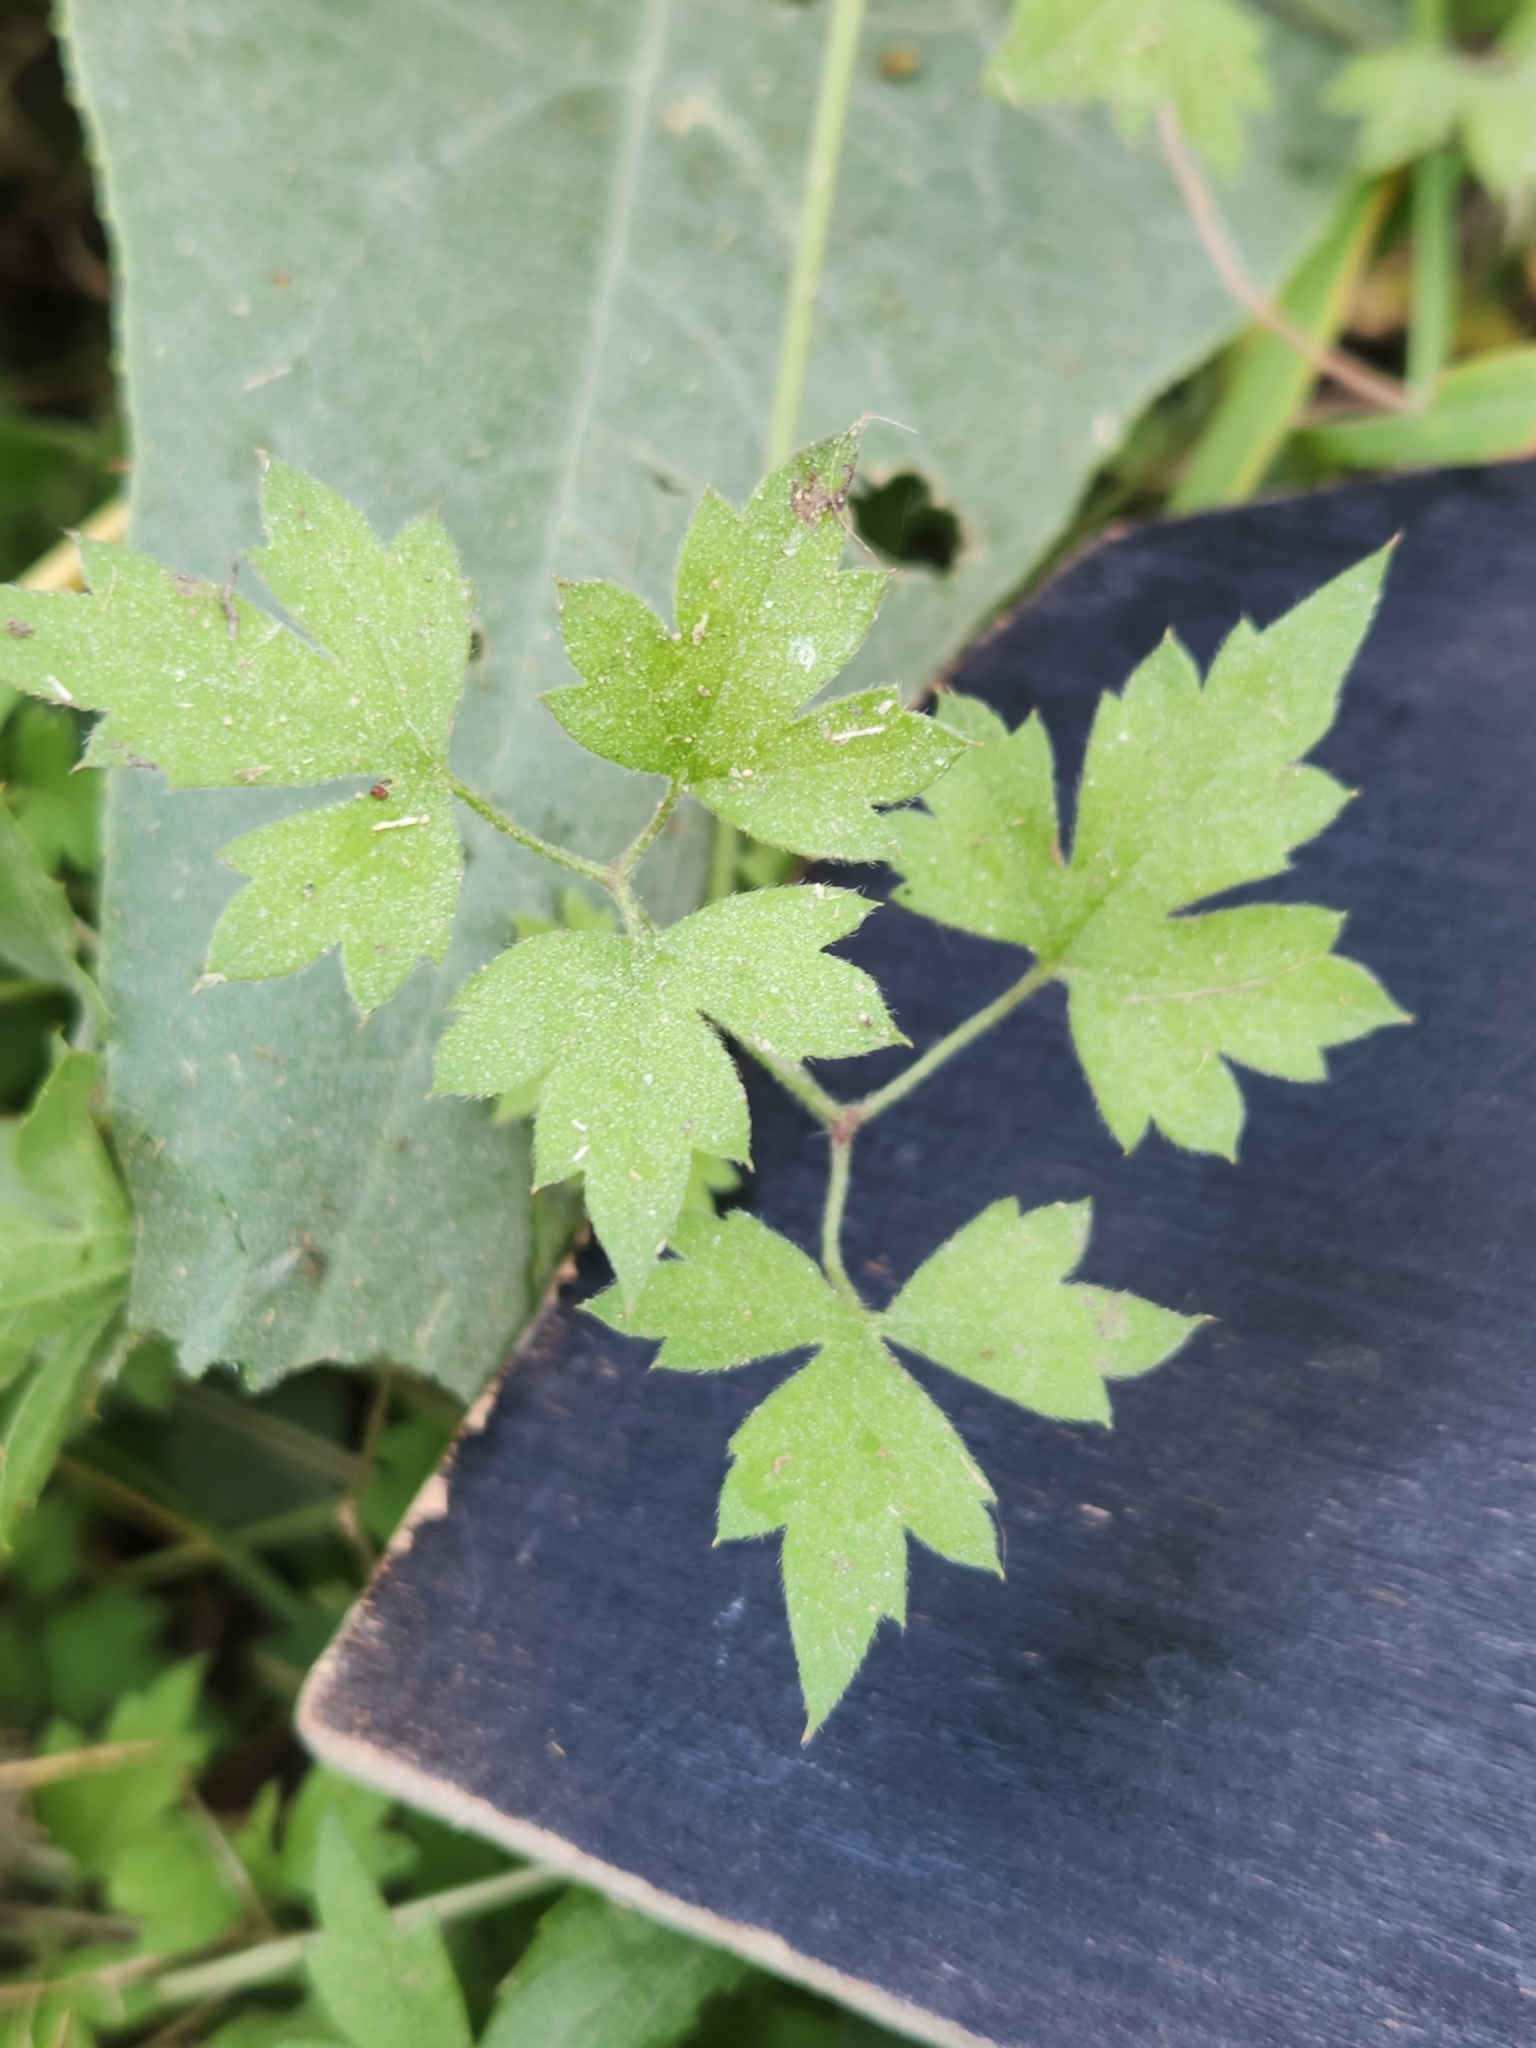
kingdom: Plantae
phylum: Tracheophyta
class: Magnoliopsida
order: Ranunculales
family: Ranunculaceae
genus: Clematis
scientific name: Clematis drummondii
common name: Texas virgin's bower
